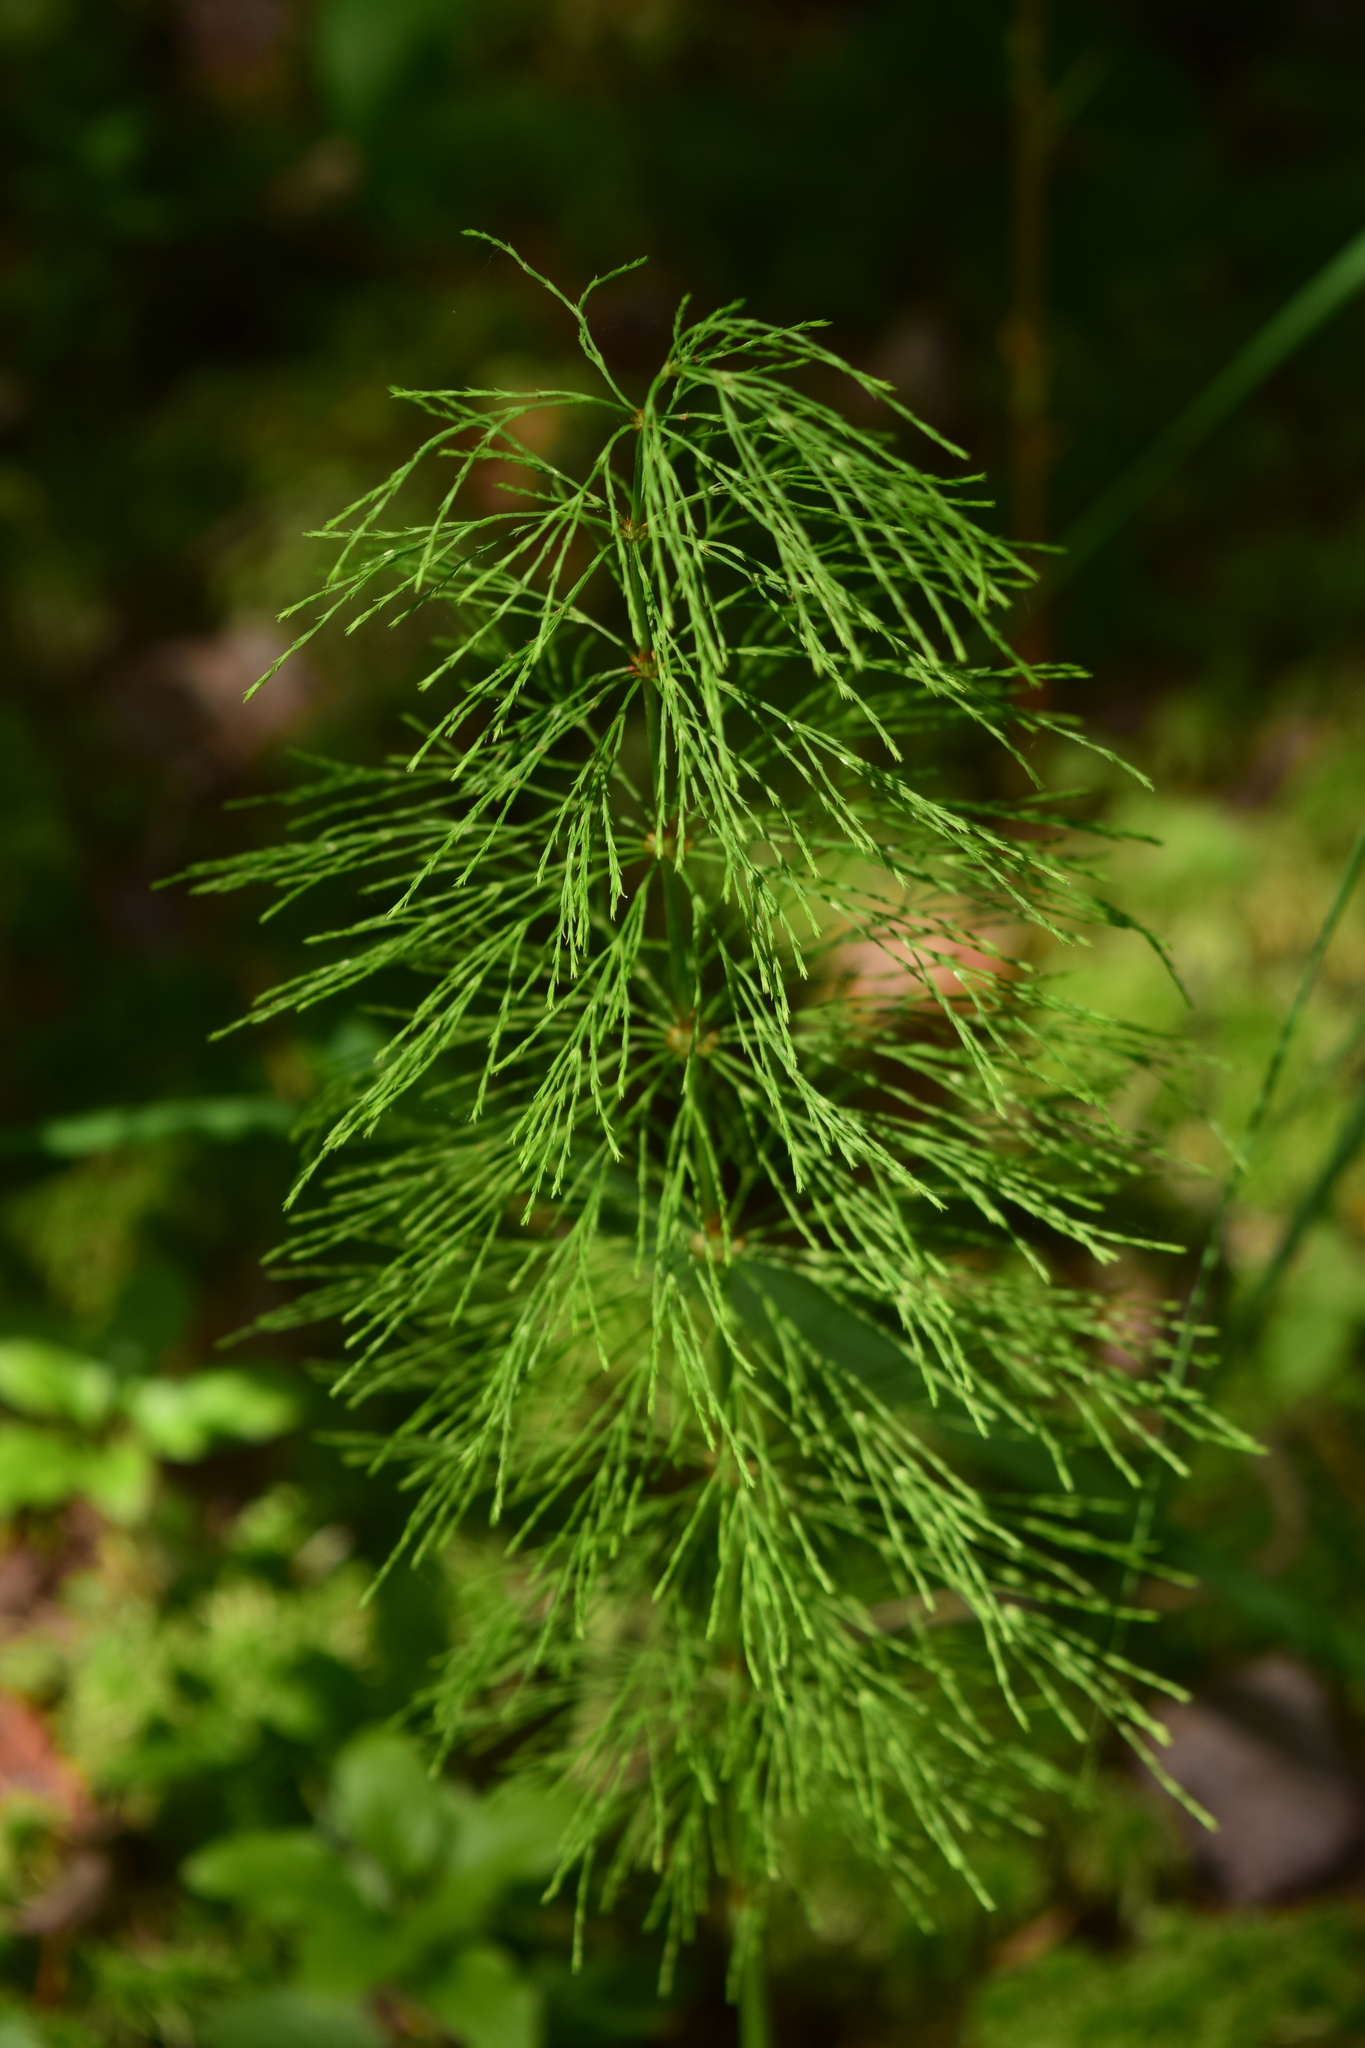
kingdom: Plantae
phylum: Tracheophyta
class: Polypodiopsida
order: Equisetales
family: Equisetaceae
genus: Equisetum
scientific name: Equisetum sylvaticum
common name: Wood horsetail
